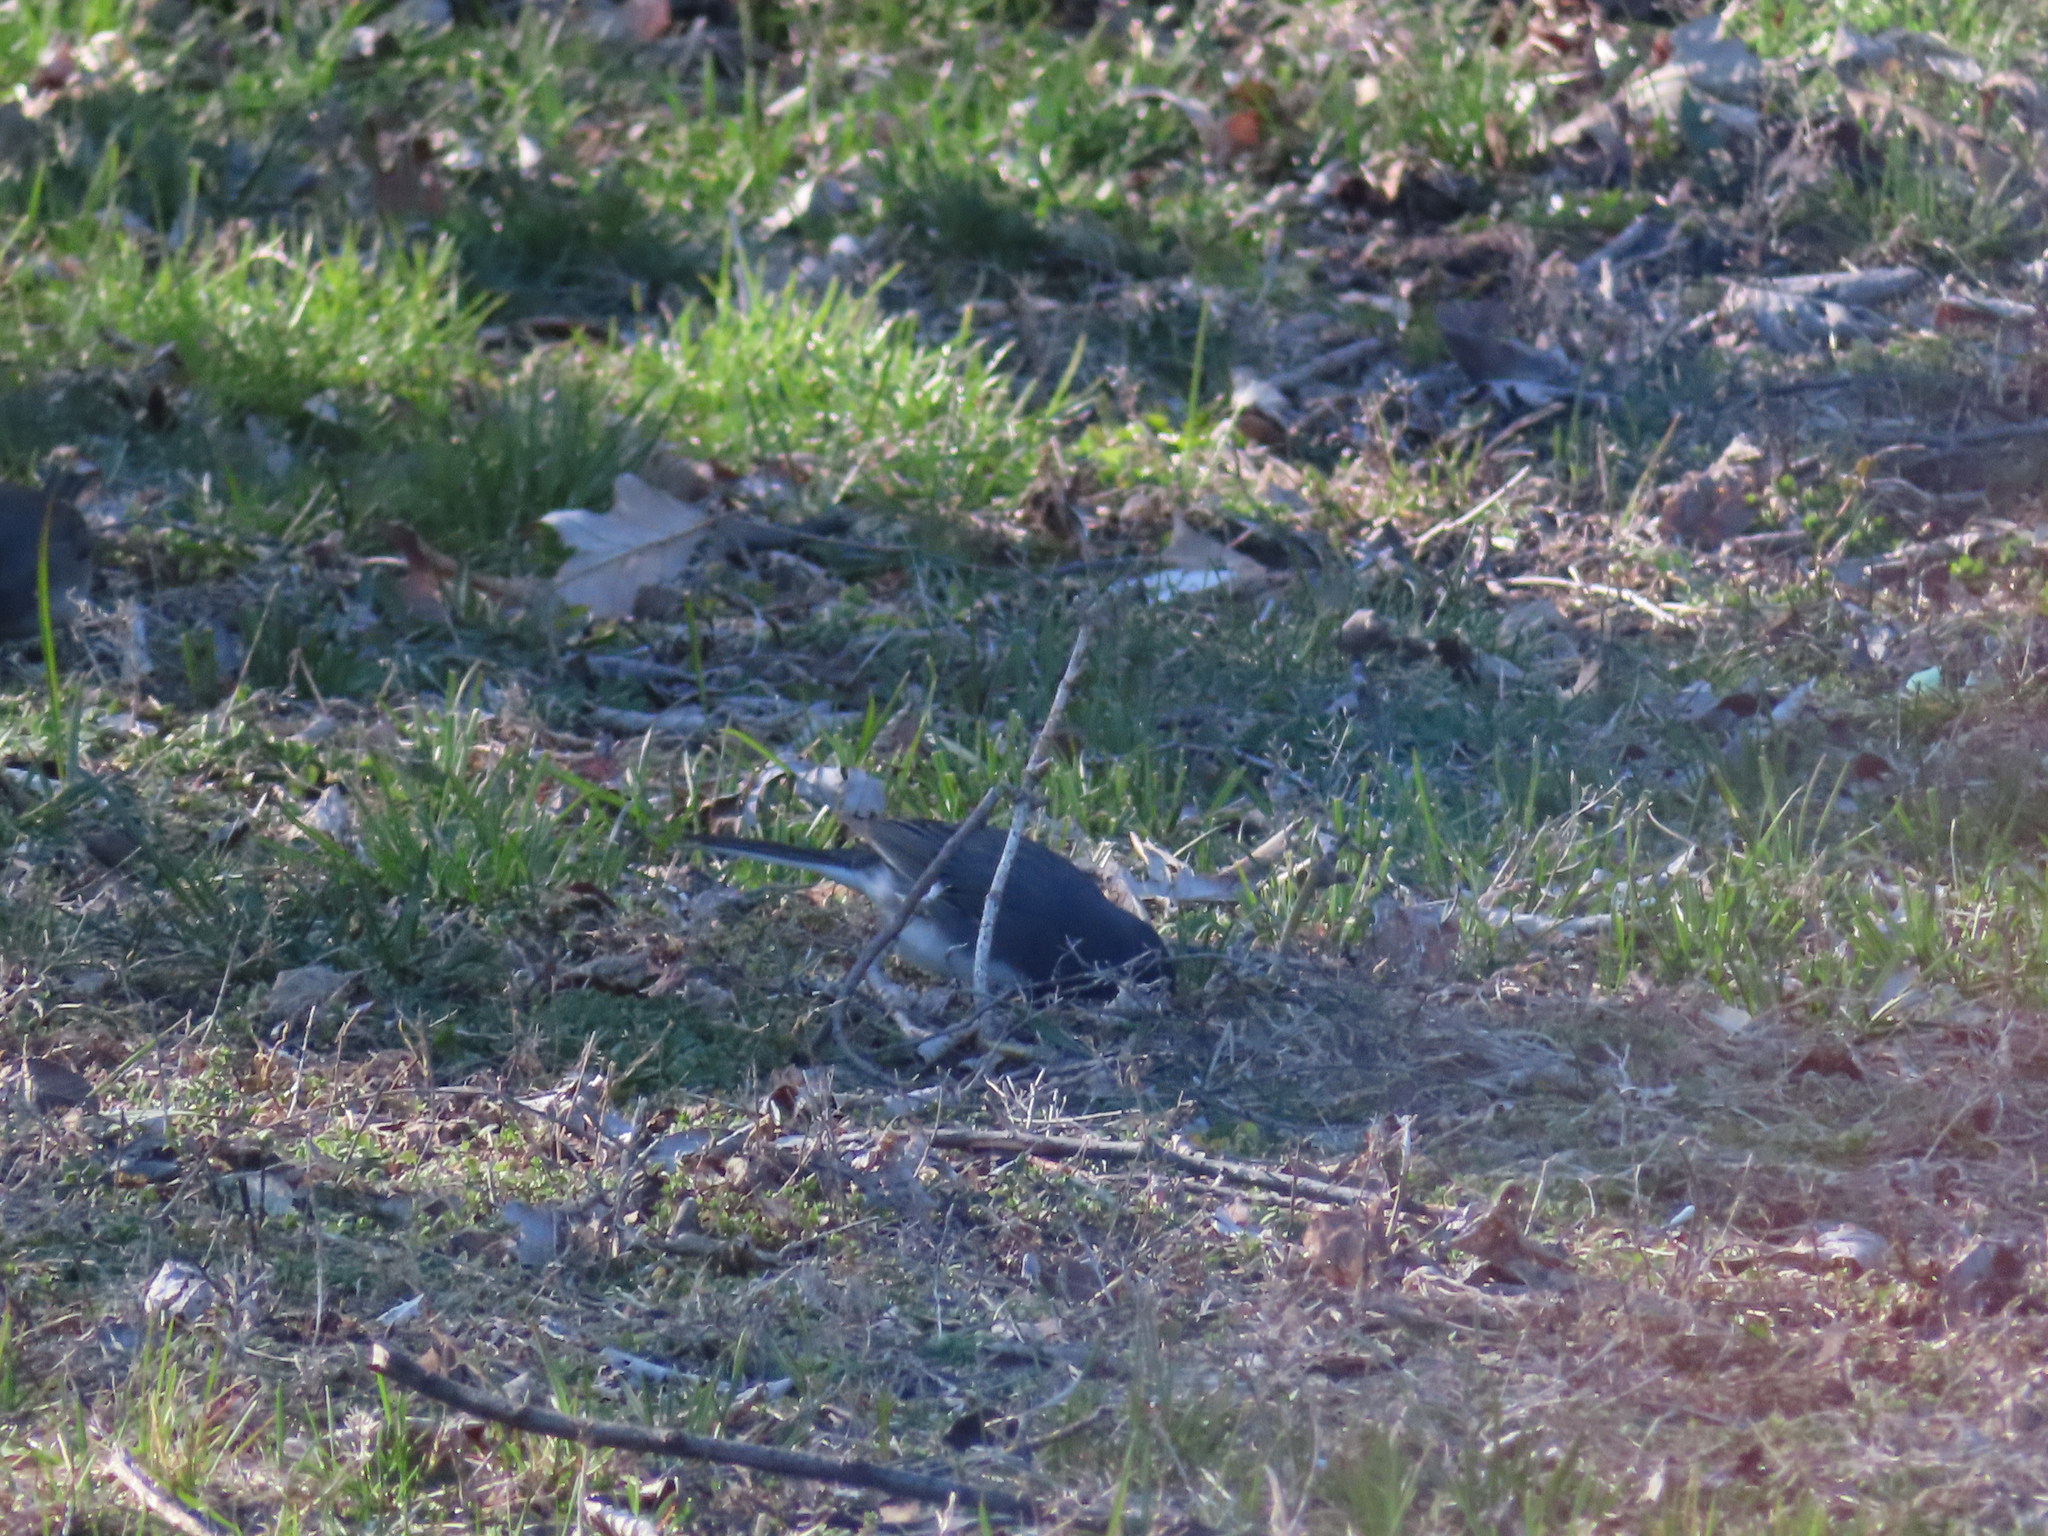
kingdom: Animalia
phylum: Chordata
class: Aves
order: Passeriformes
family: Passerellidae
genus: Junco
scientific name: Junco hyemalis
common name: Dark-eyed junco
